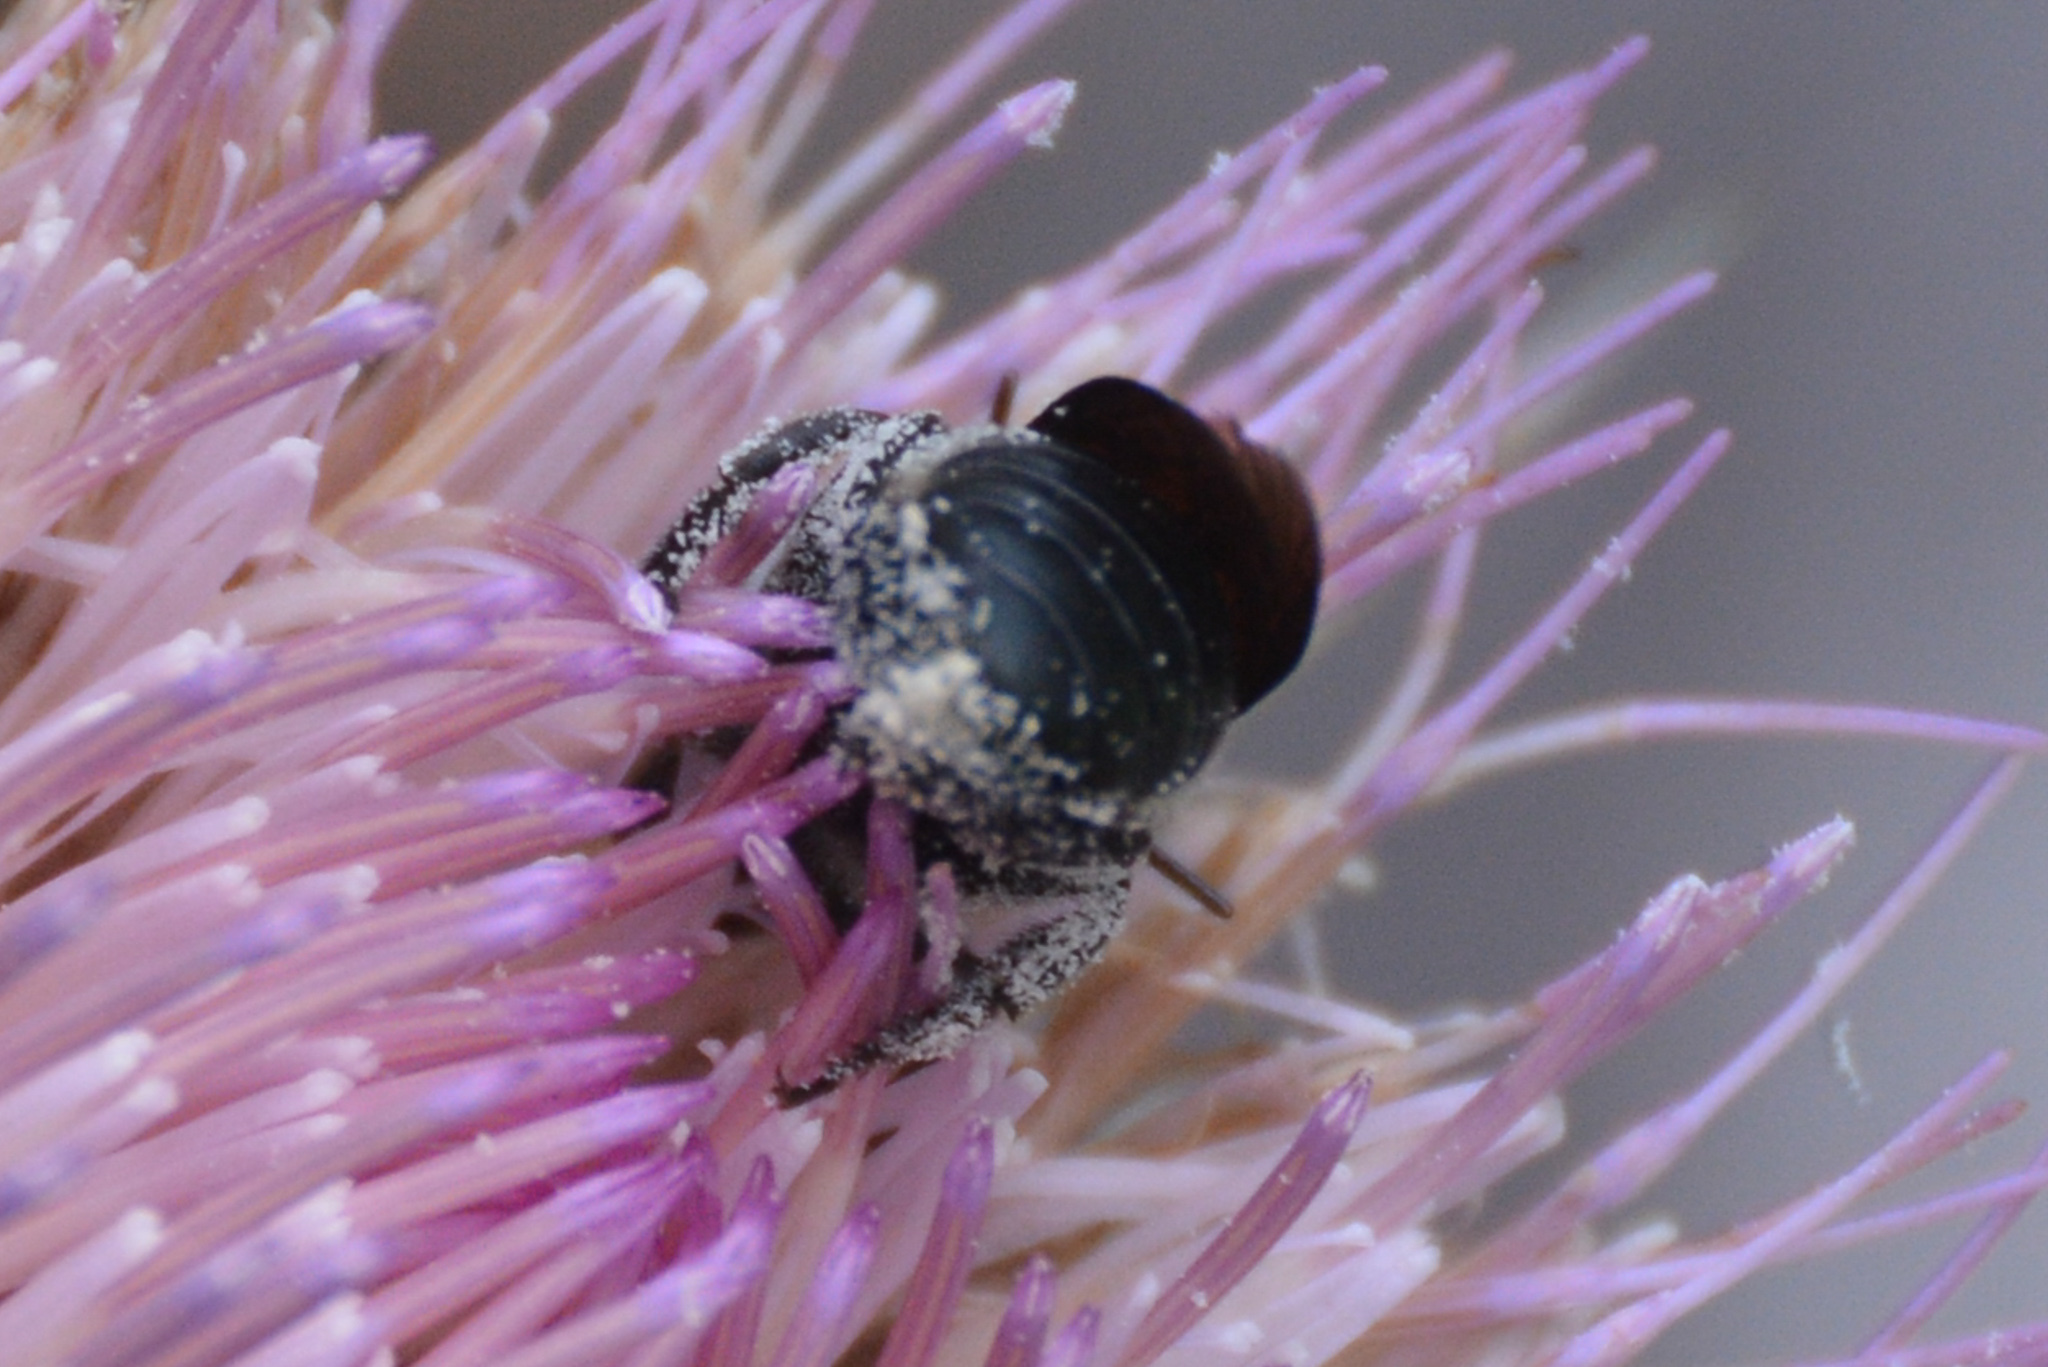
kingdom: Animalia
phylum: Arthropoda
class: Insecta
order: Hymenoptera
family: Megachilidae
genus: Osmia
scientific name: Osmia chalybea
